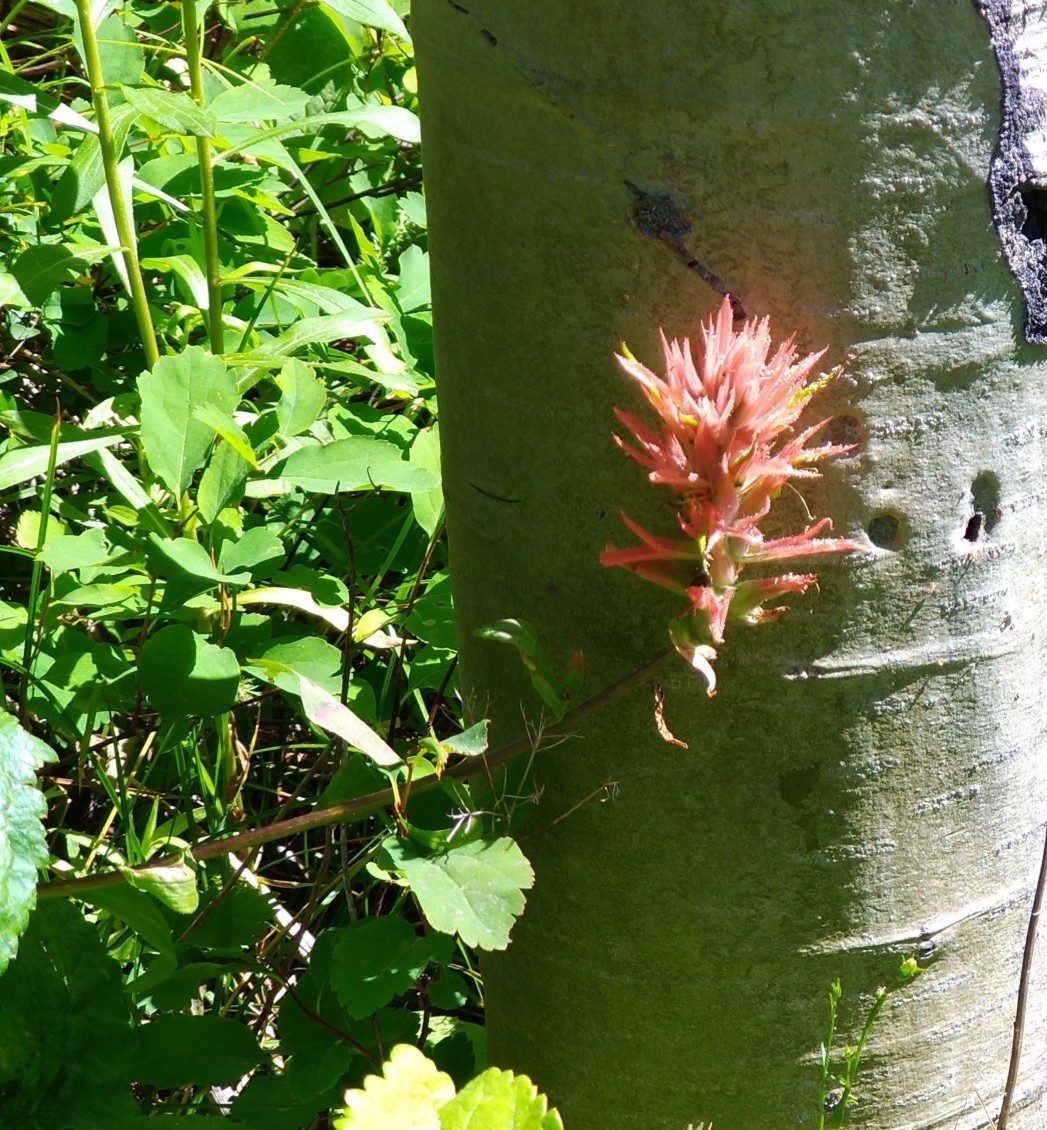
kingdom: Plantae
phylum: Tracheophyta
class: Magnoliopsida
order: Lamiales
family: Orobanchaceae
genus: Castilleja
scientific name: Castilleja miniata
